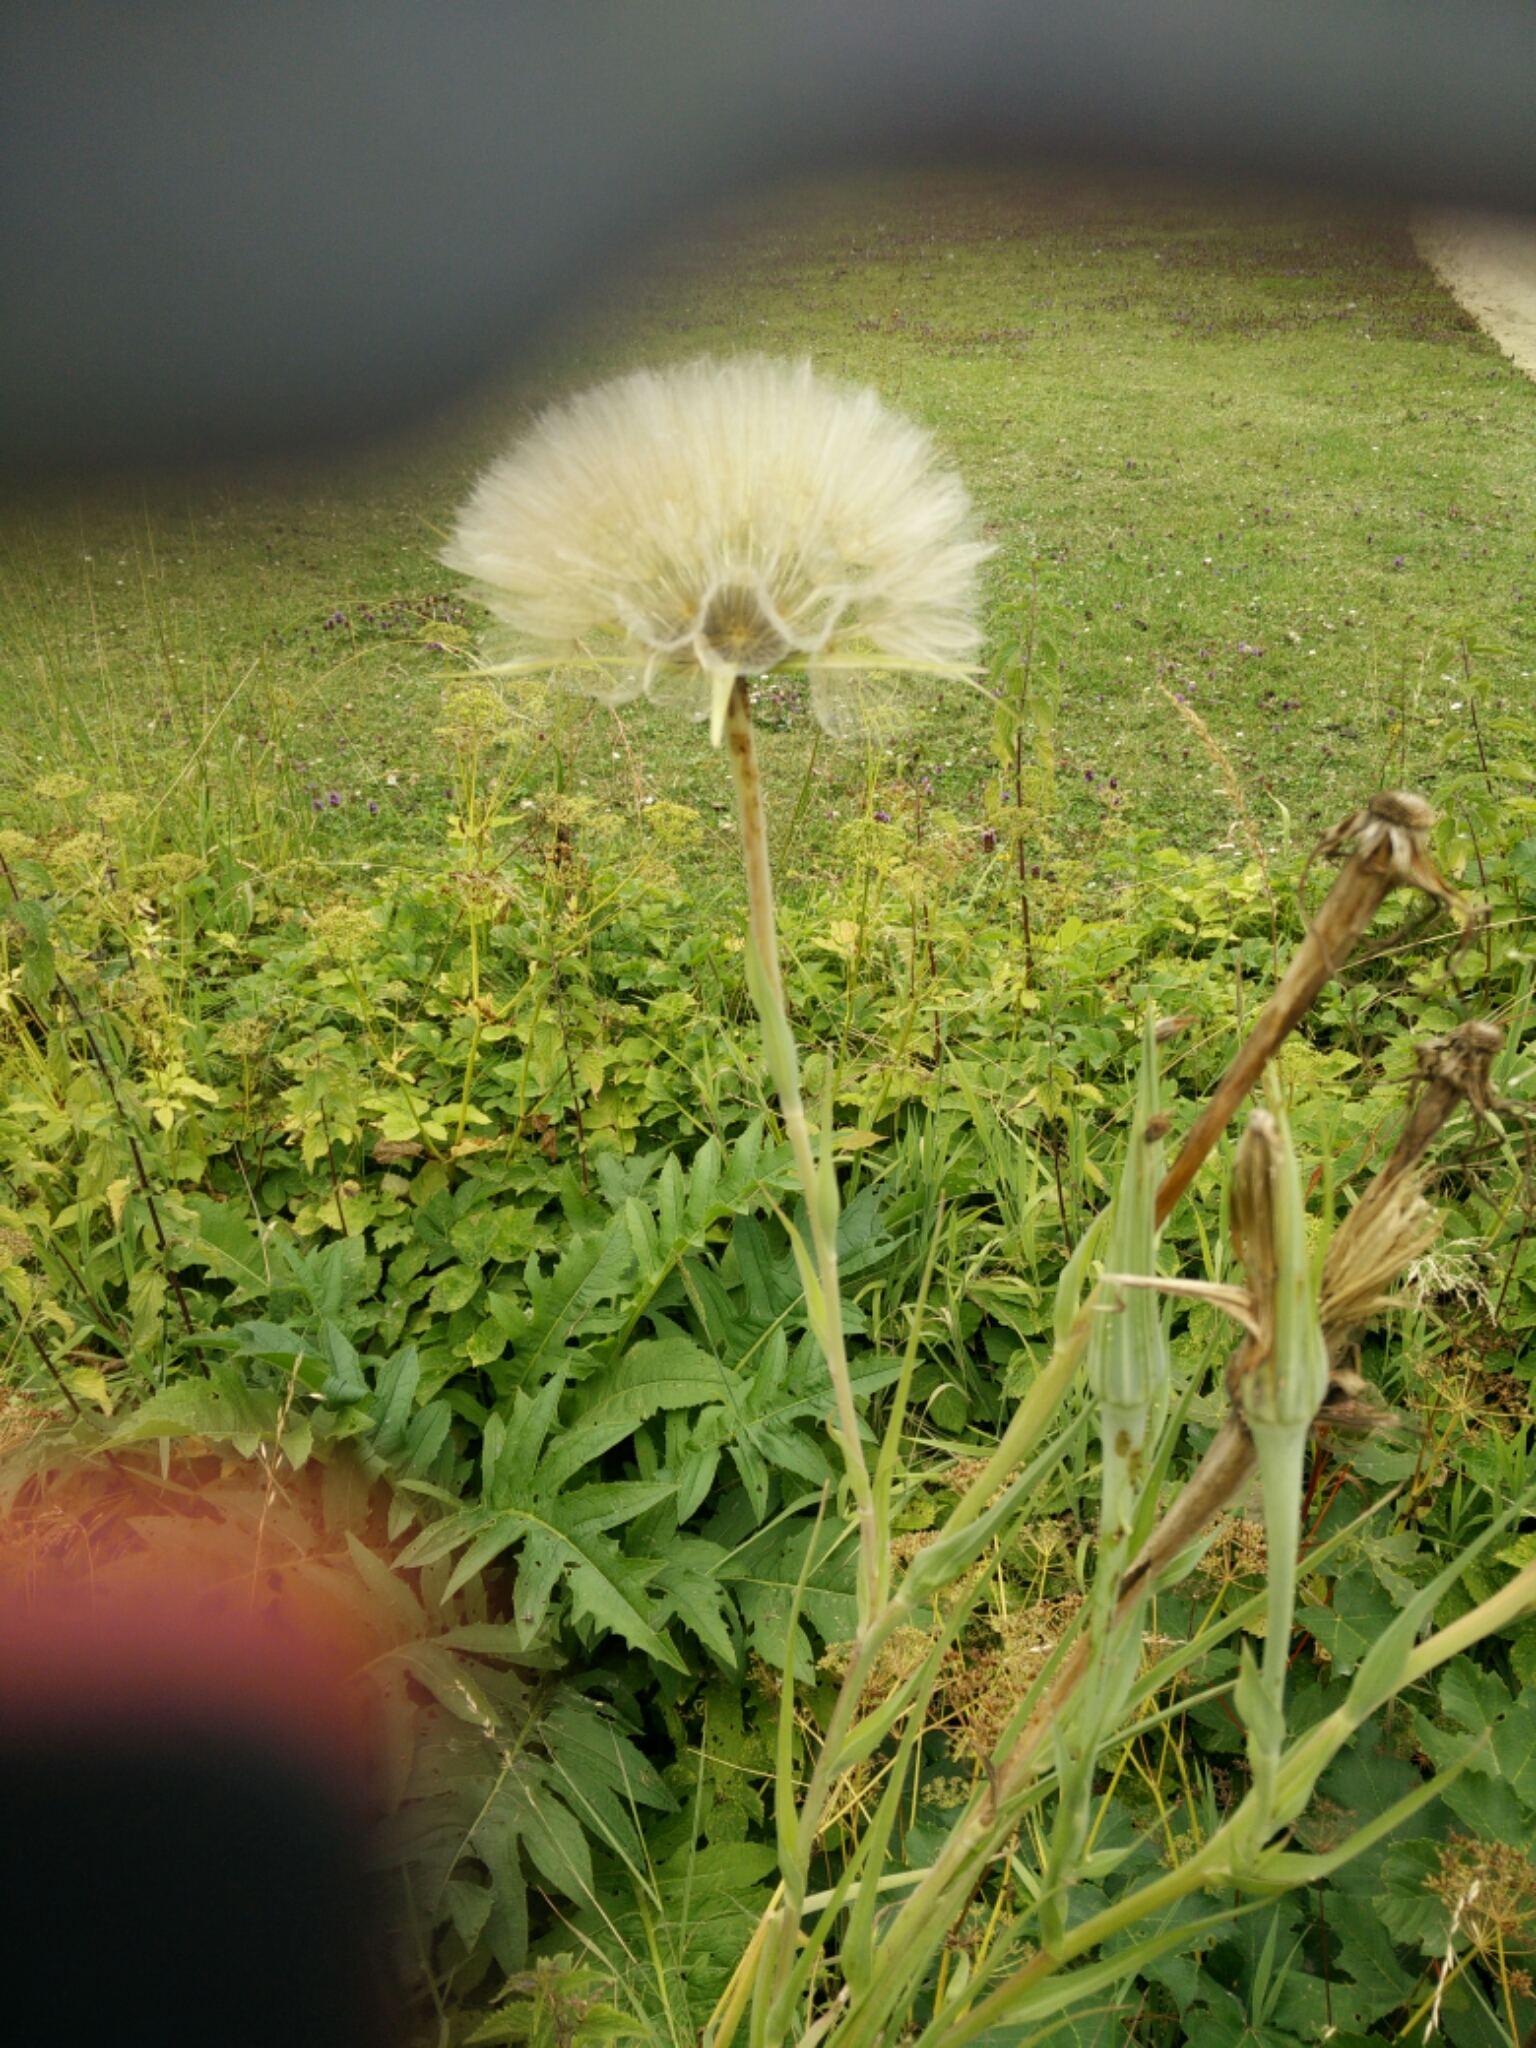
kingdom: Plantae
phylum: Tracheophyta
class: Magnoliopsida
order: Asterales
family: Asteraceae
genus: Tragopogon
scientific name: Tragopogon pratensis
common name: Goat's-beard
